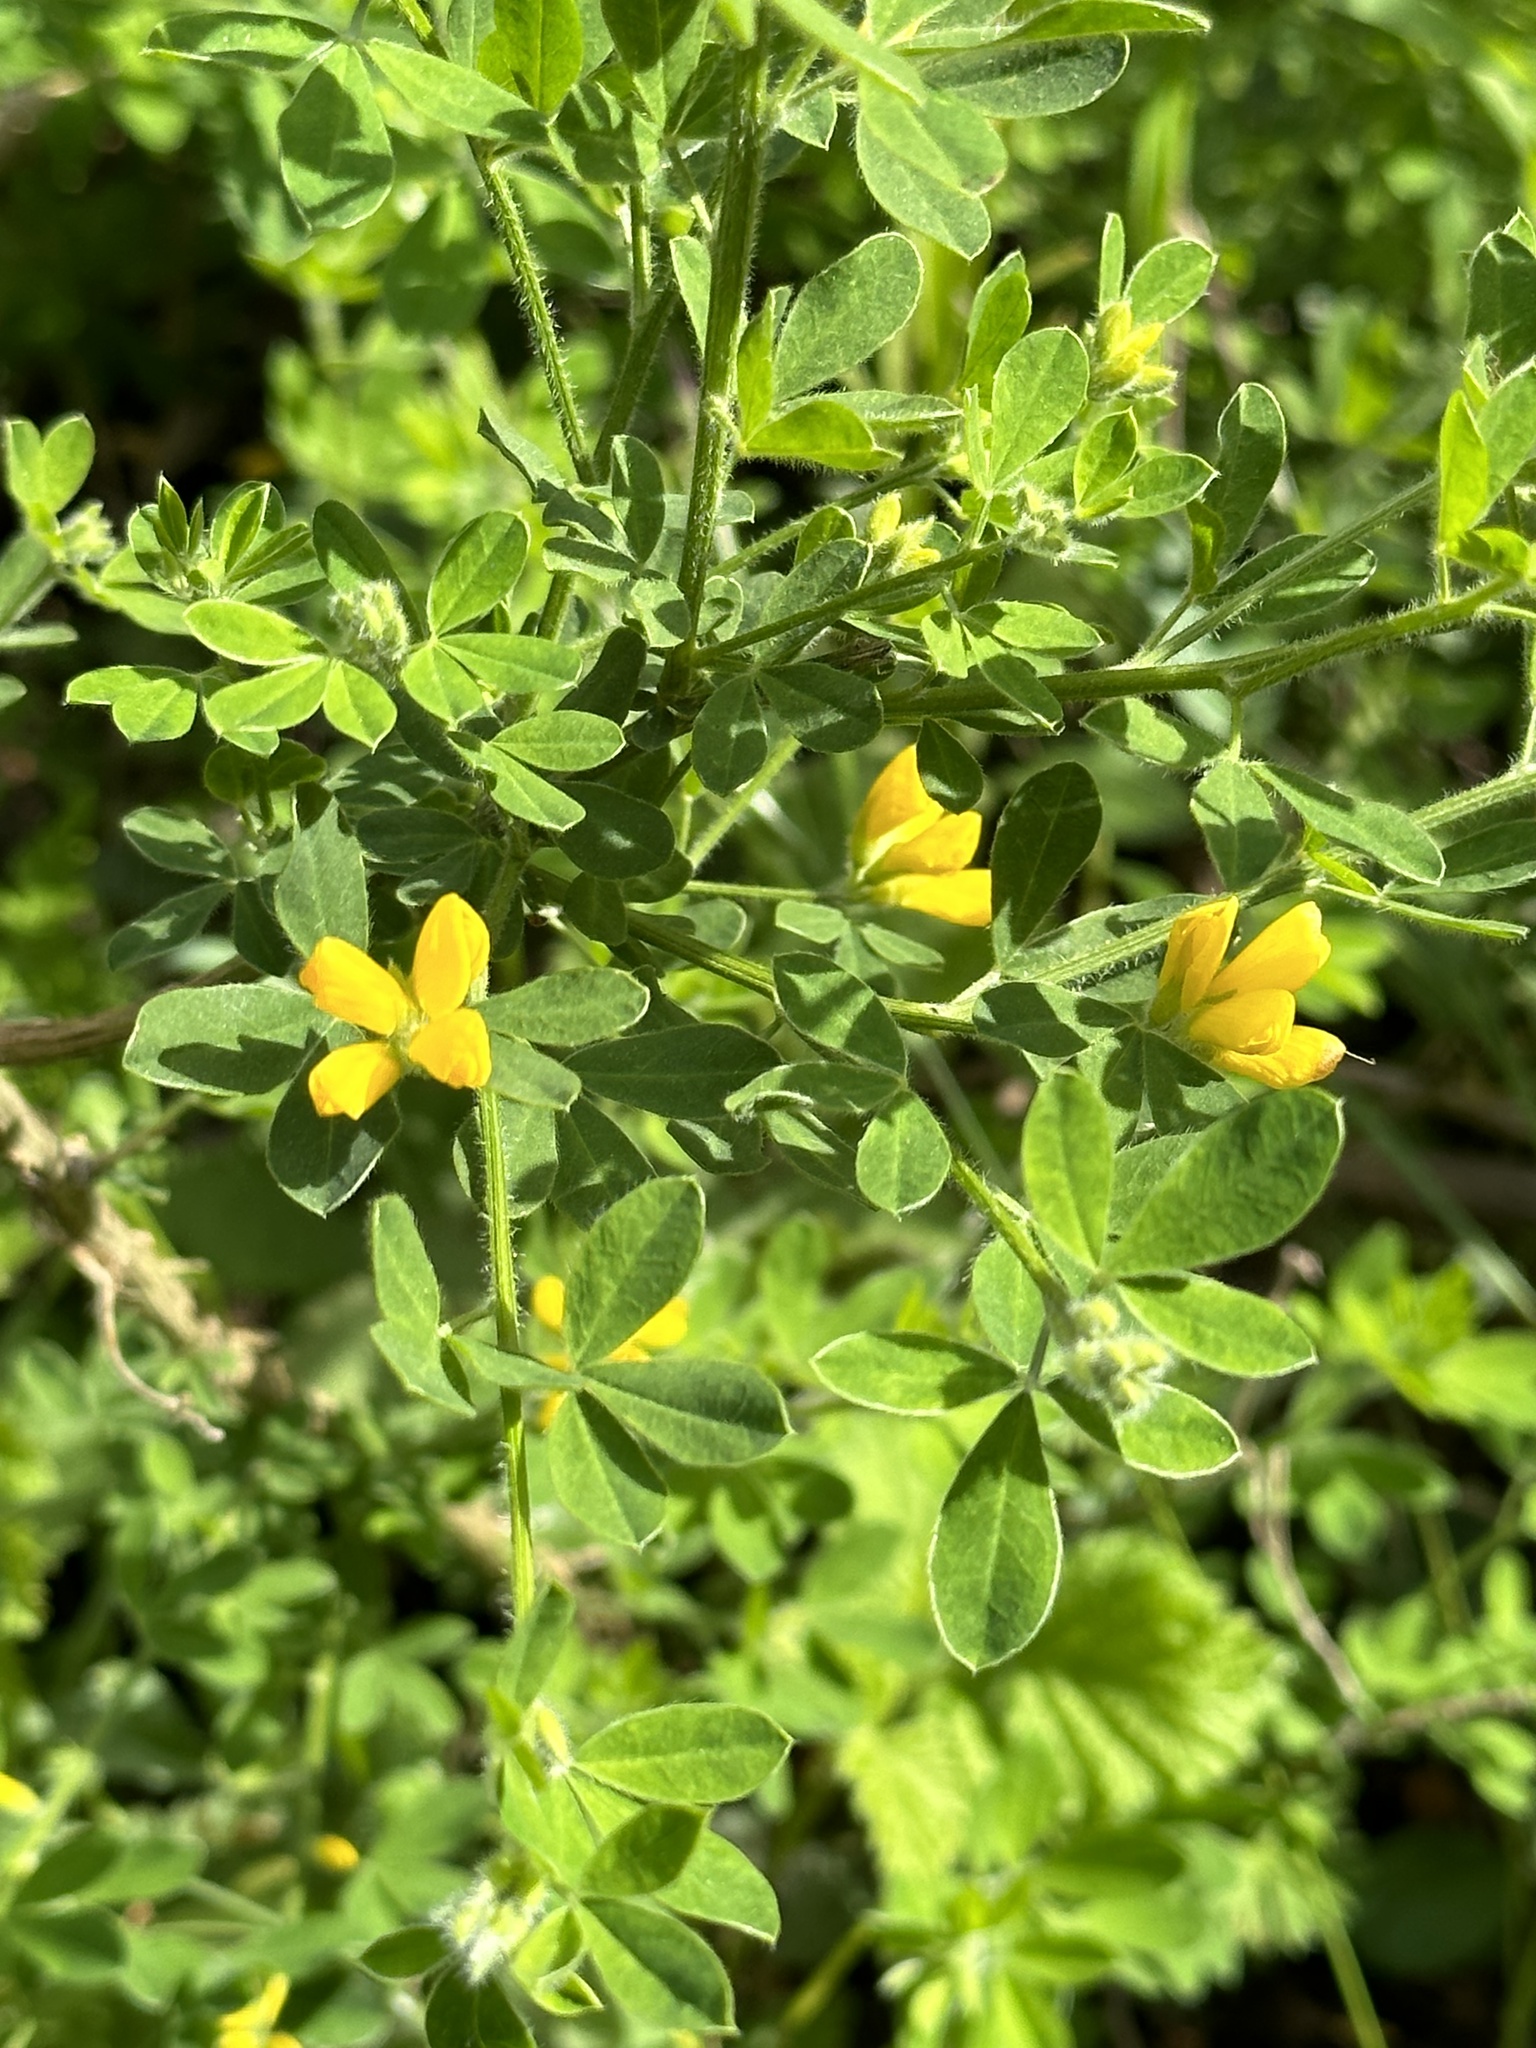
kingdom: Plantae
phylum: Tracheophyta
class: Magnoliopsida
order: Fabales
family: Fabaceae
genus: Genista
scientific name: Genista monspessulana
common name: Montpellier broom
